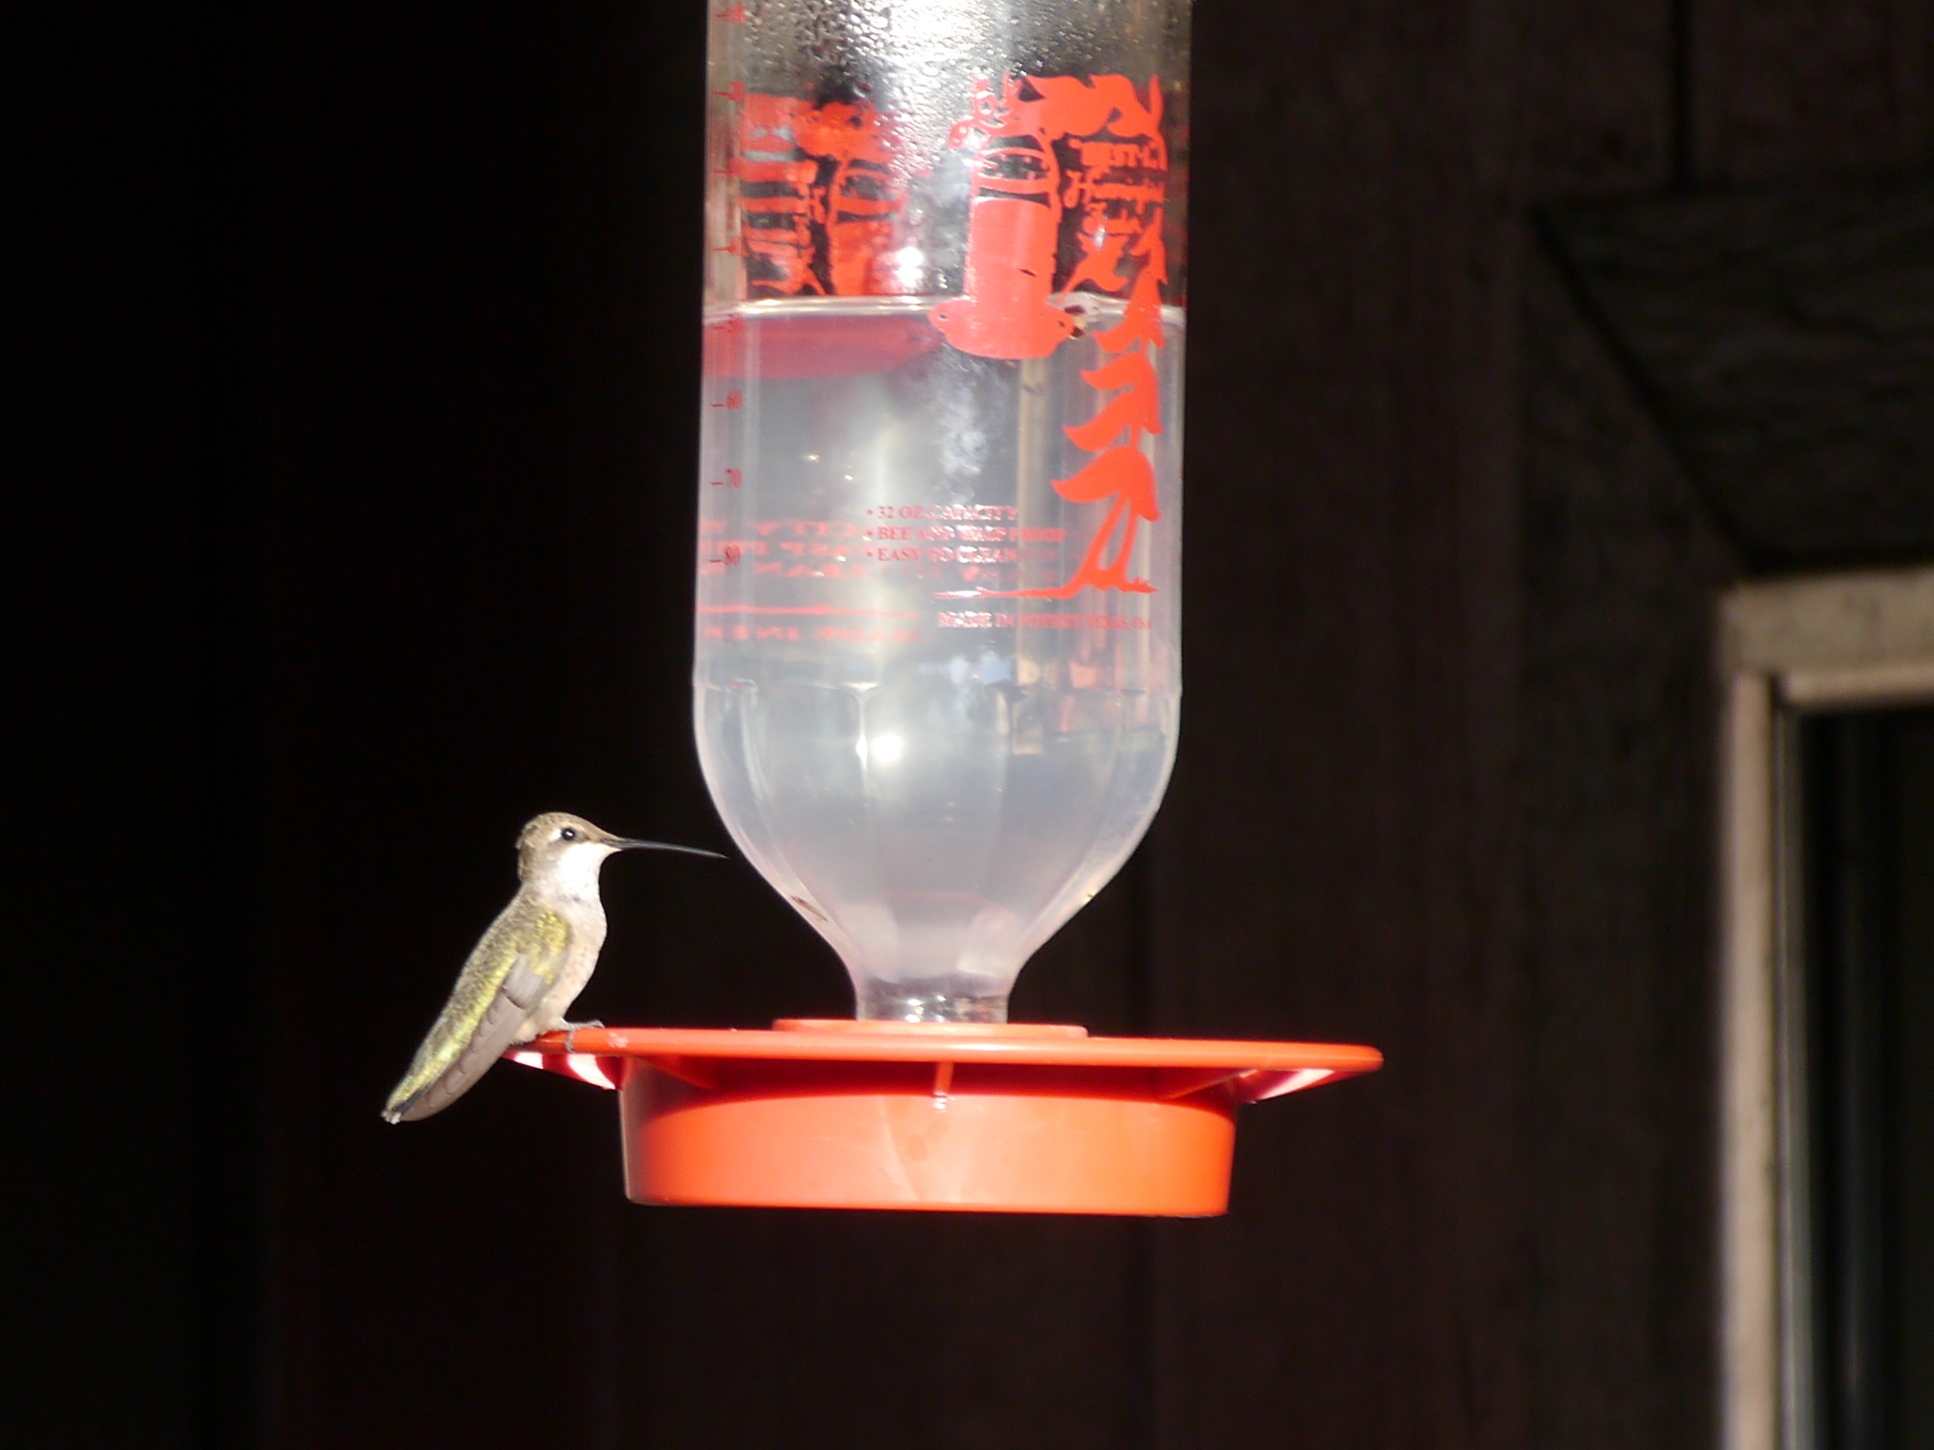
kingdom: Animalia
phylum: Chordata
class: Aves
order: Apodiformes
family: Trochilidae
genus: Archilochus
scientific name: Archilochus alexandri
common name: Black-chinned hummingbird
